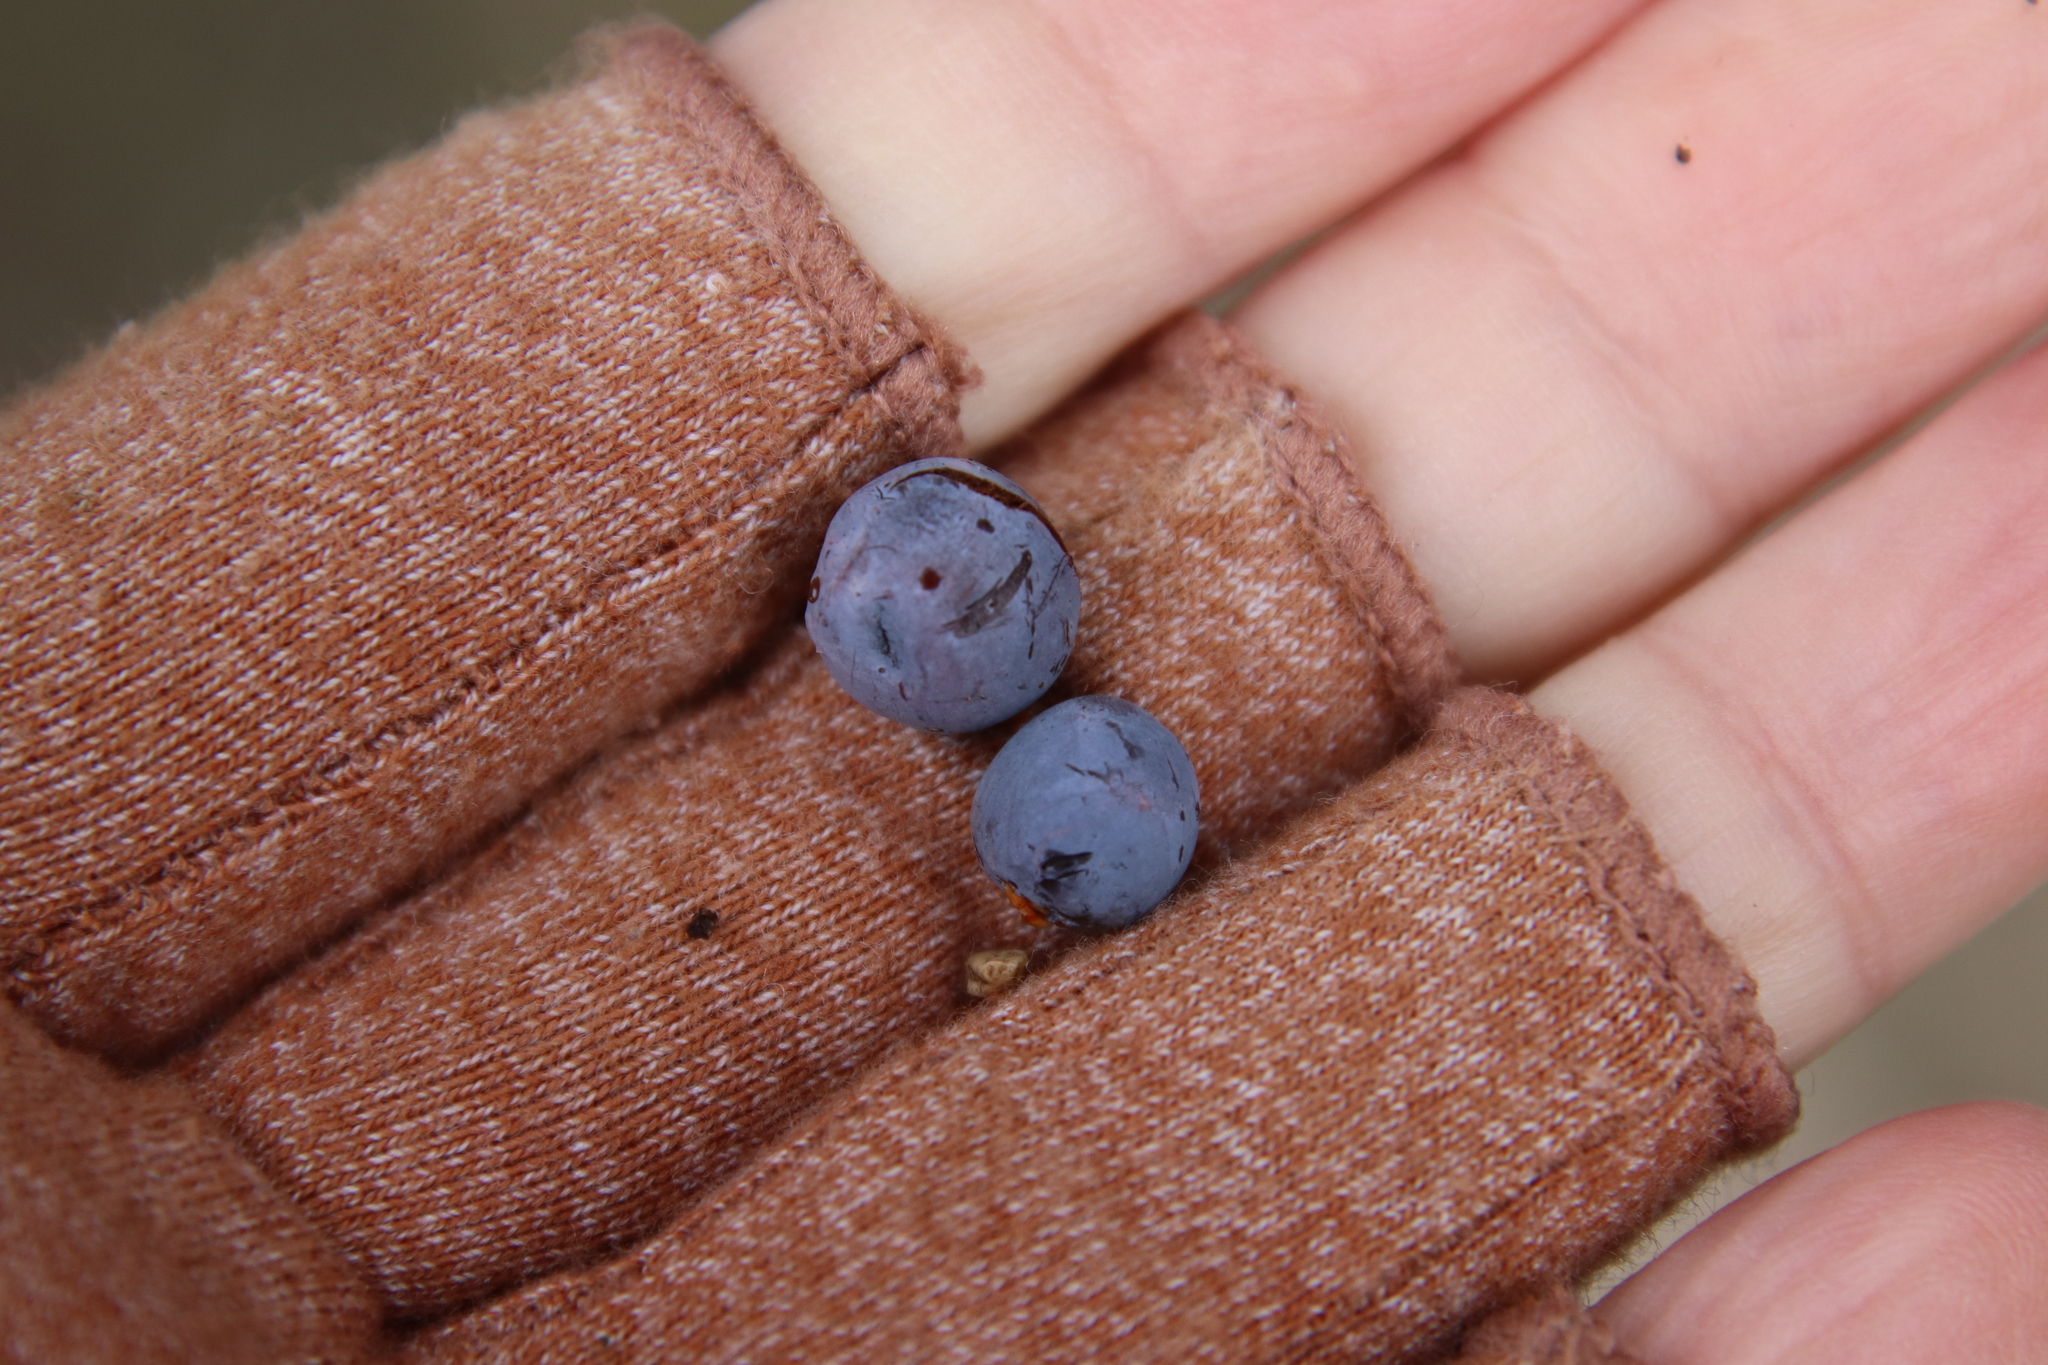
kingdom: Plantae
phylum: Tracheophyta
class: Pinopsida
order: Pinales
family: Cupressaceae
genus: Juniperus
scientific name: Juniperus ashei
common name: Mexican juniper
